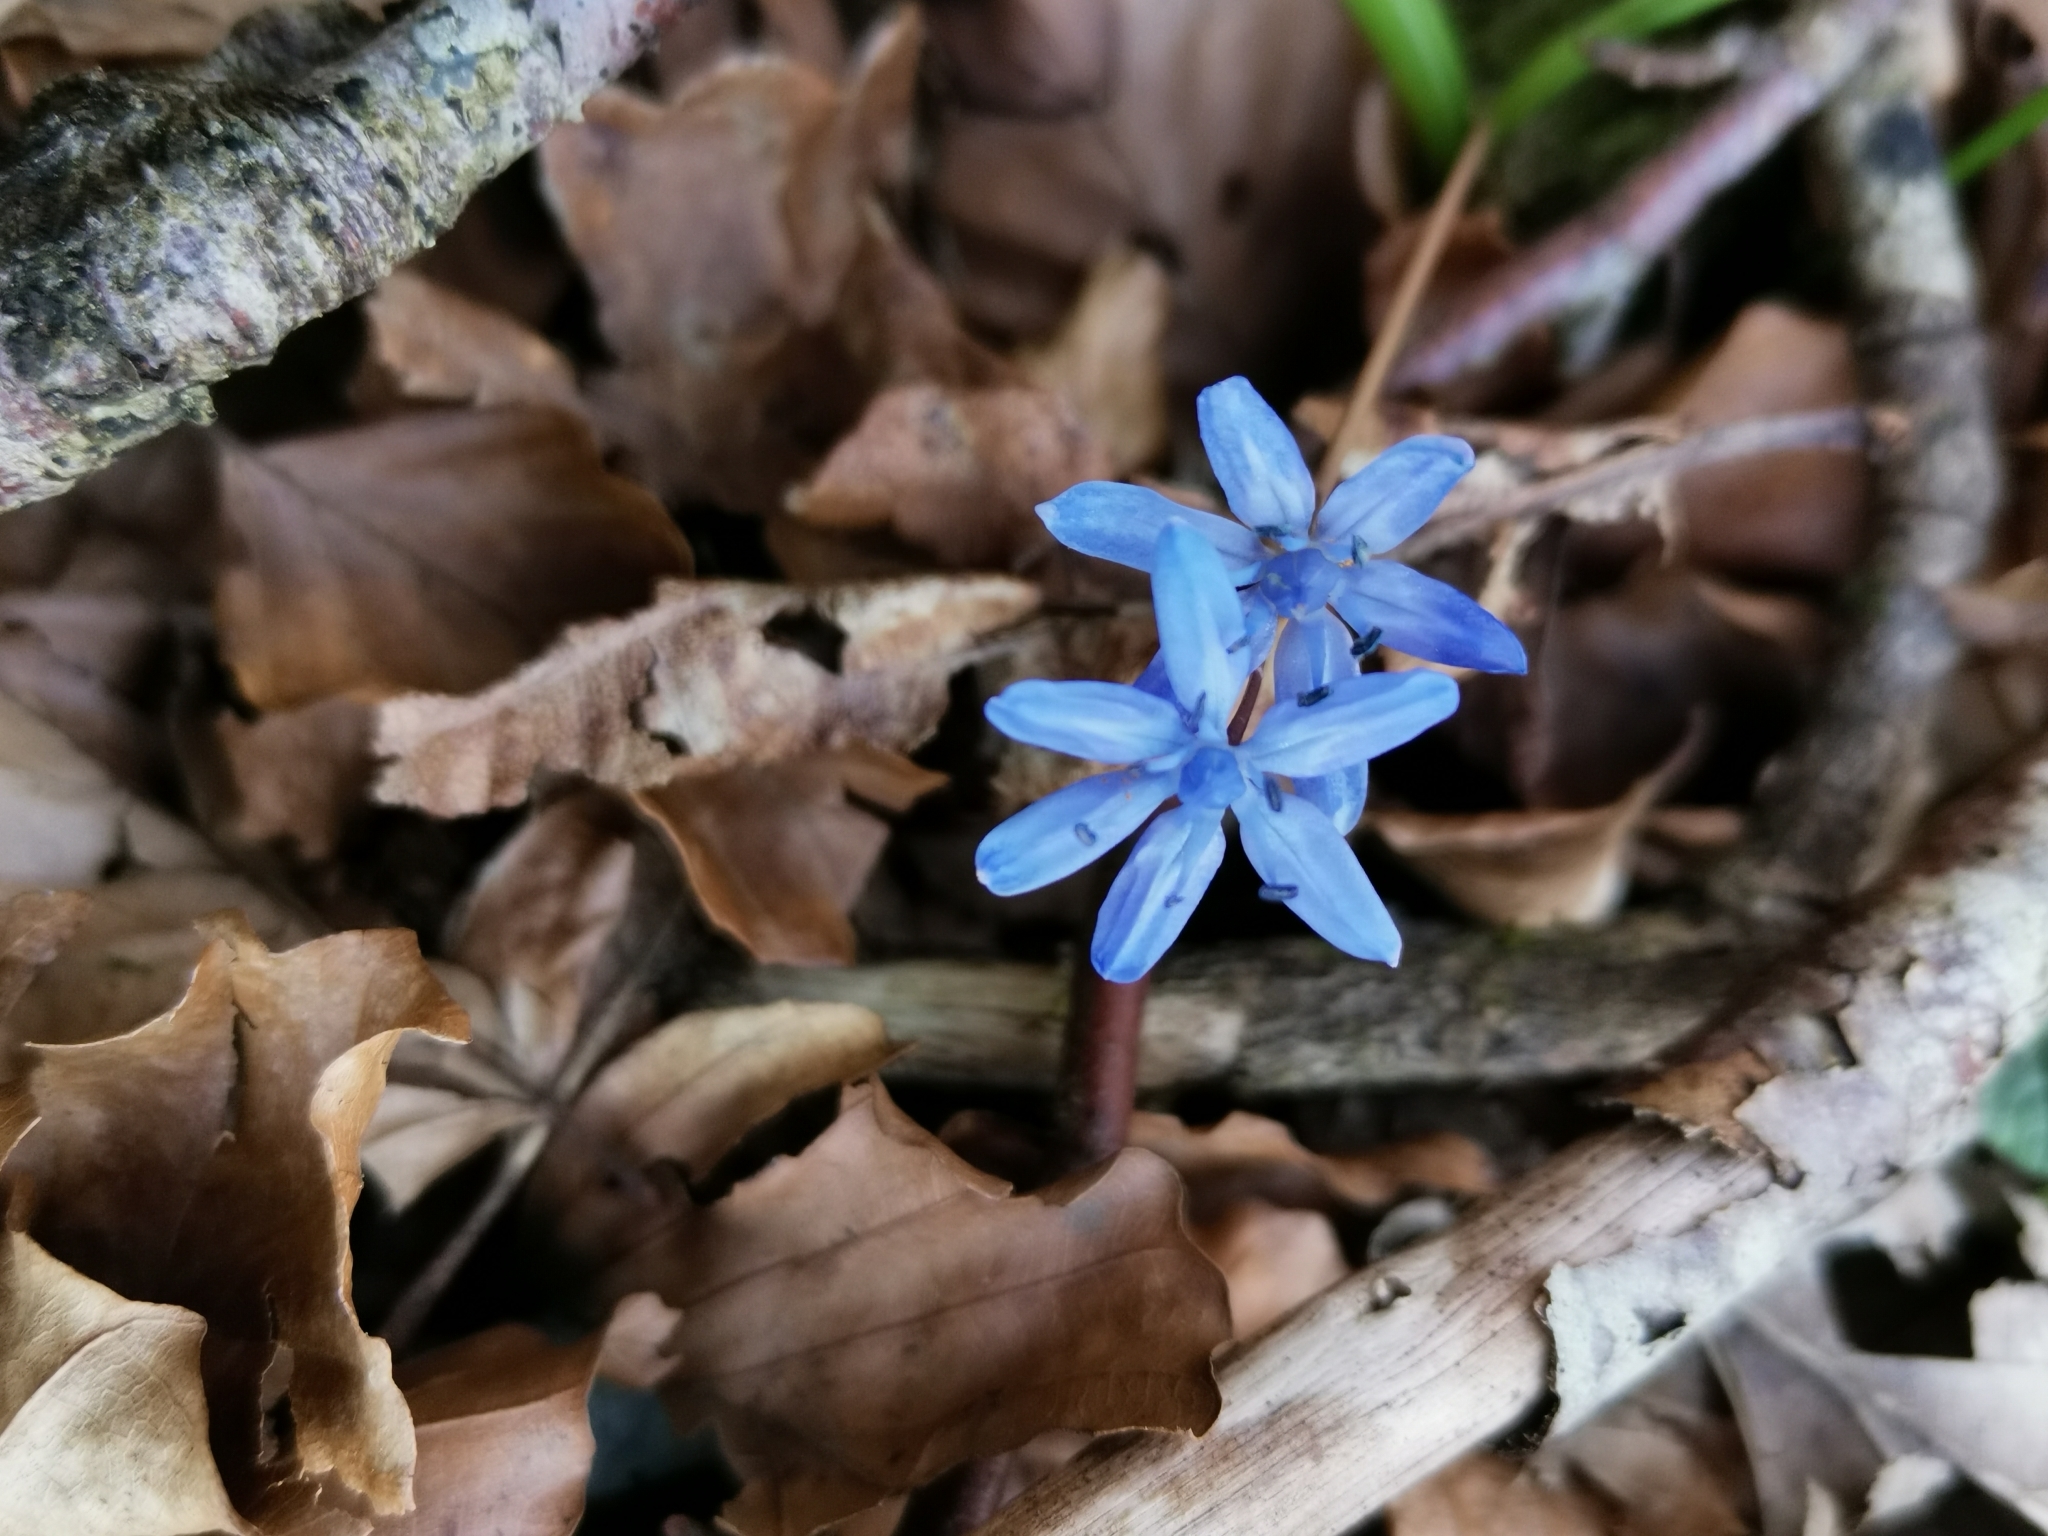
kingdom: Plantae
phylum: Tracheophyta
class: Liliopsida
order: Asparagales
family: Asparagaceae
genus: Scilla
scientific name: Scilla bifolia
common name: Alpine squill
